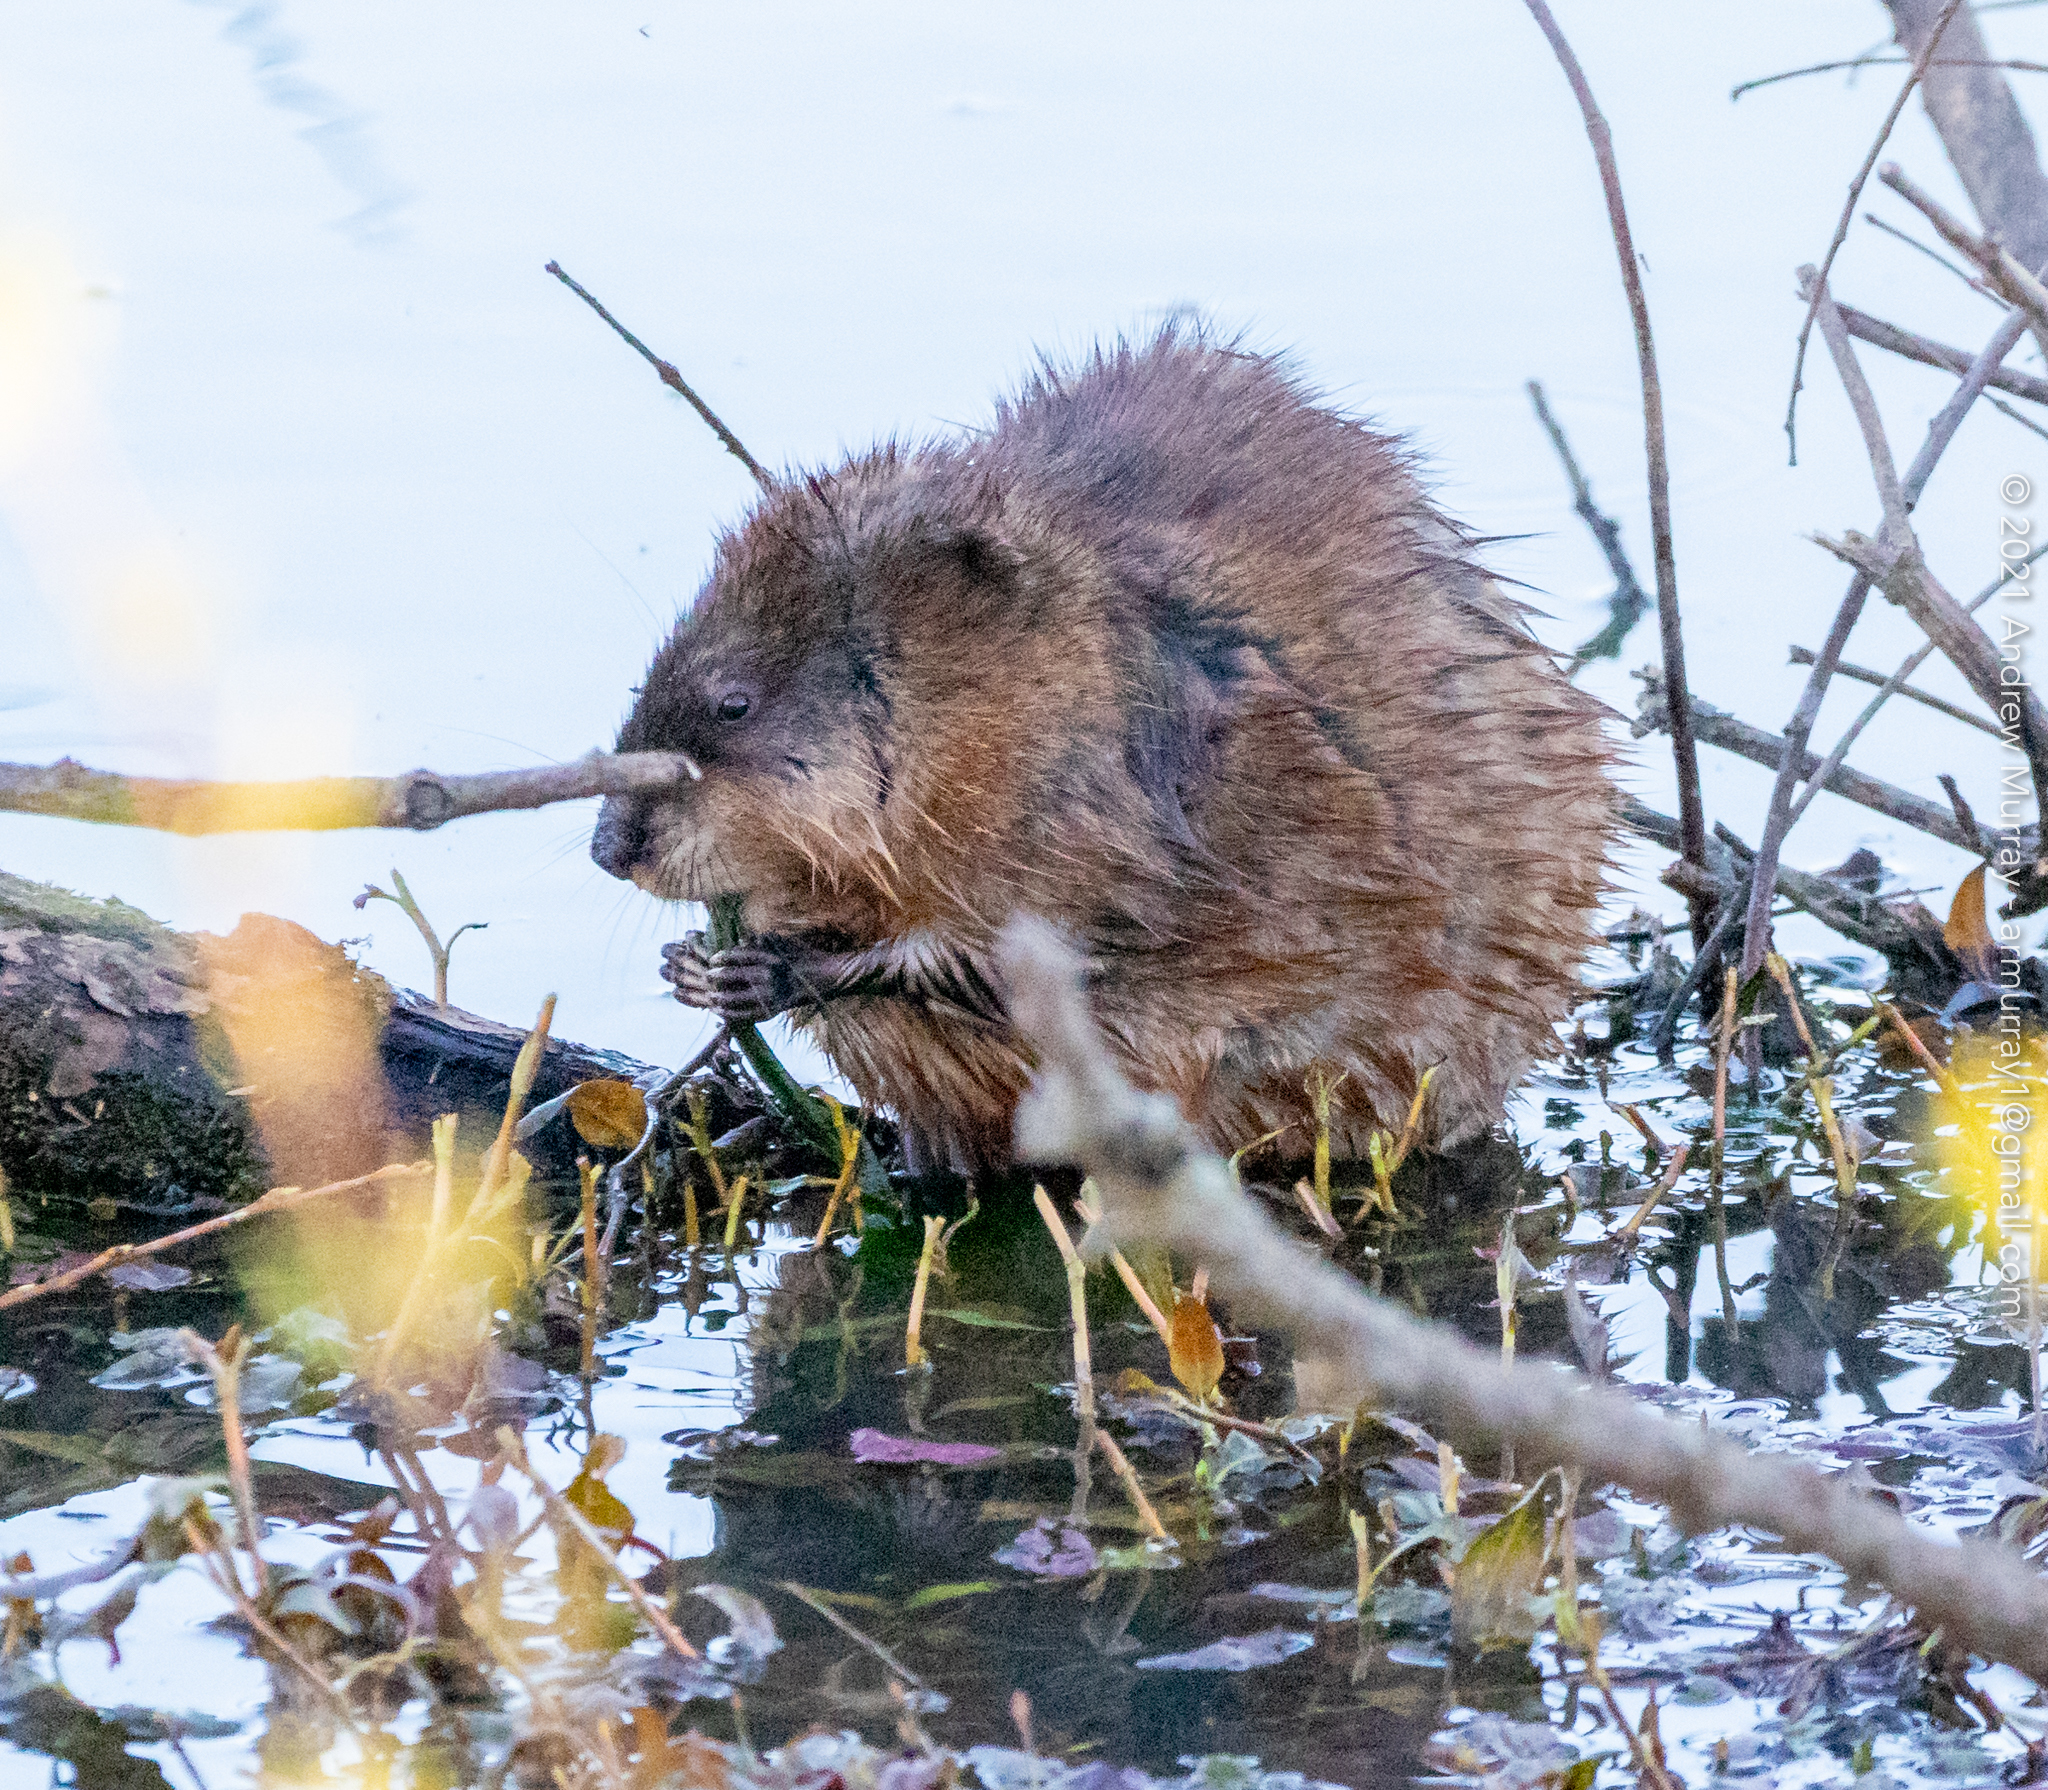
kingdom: Animalia
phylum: Chordata
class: Mammalia
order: Rodentia
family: Cricetidae
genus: Ondatra
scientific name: Ondatra zibethicus
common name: Muskrat
